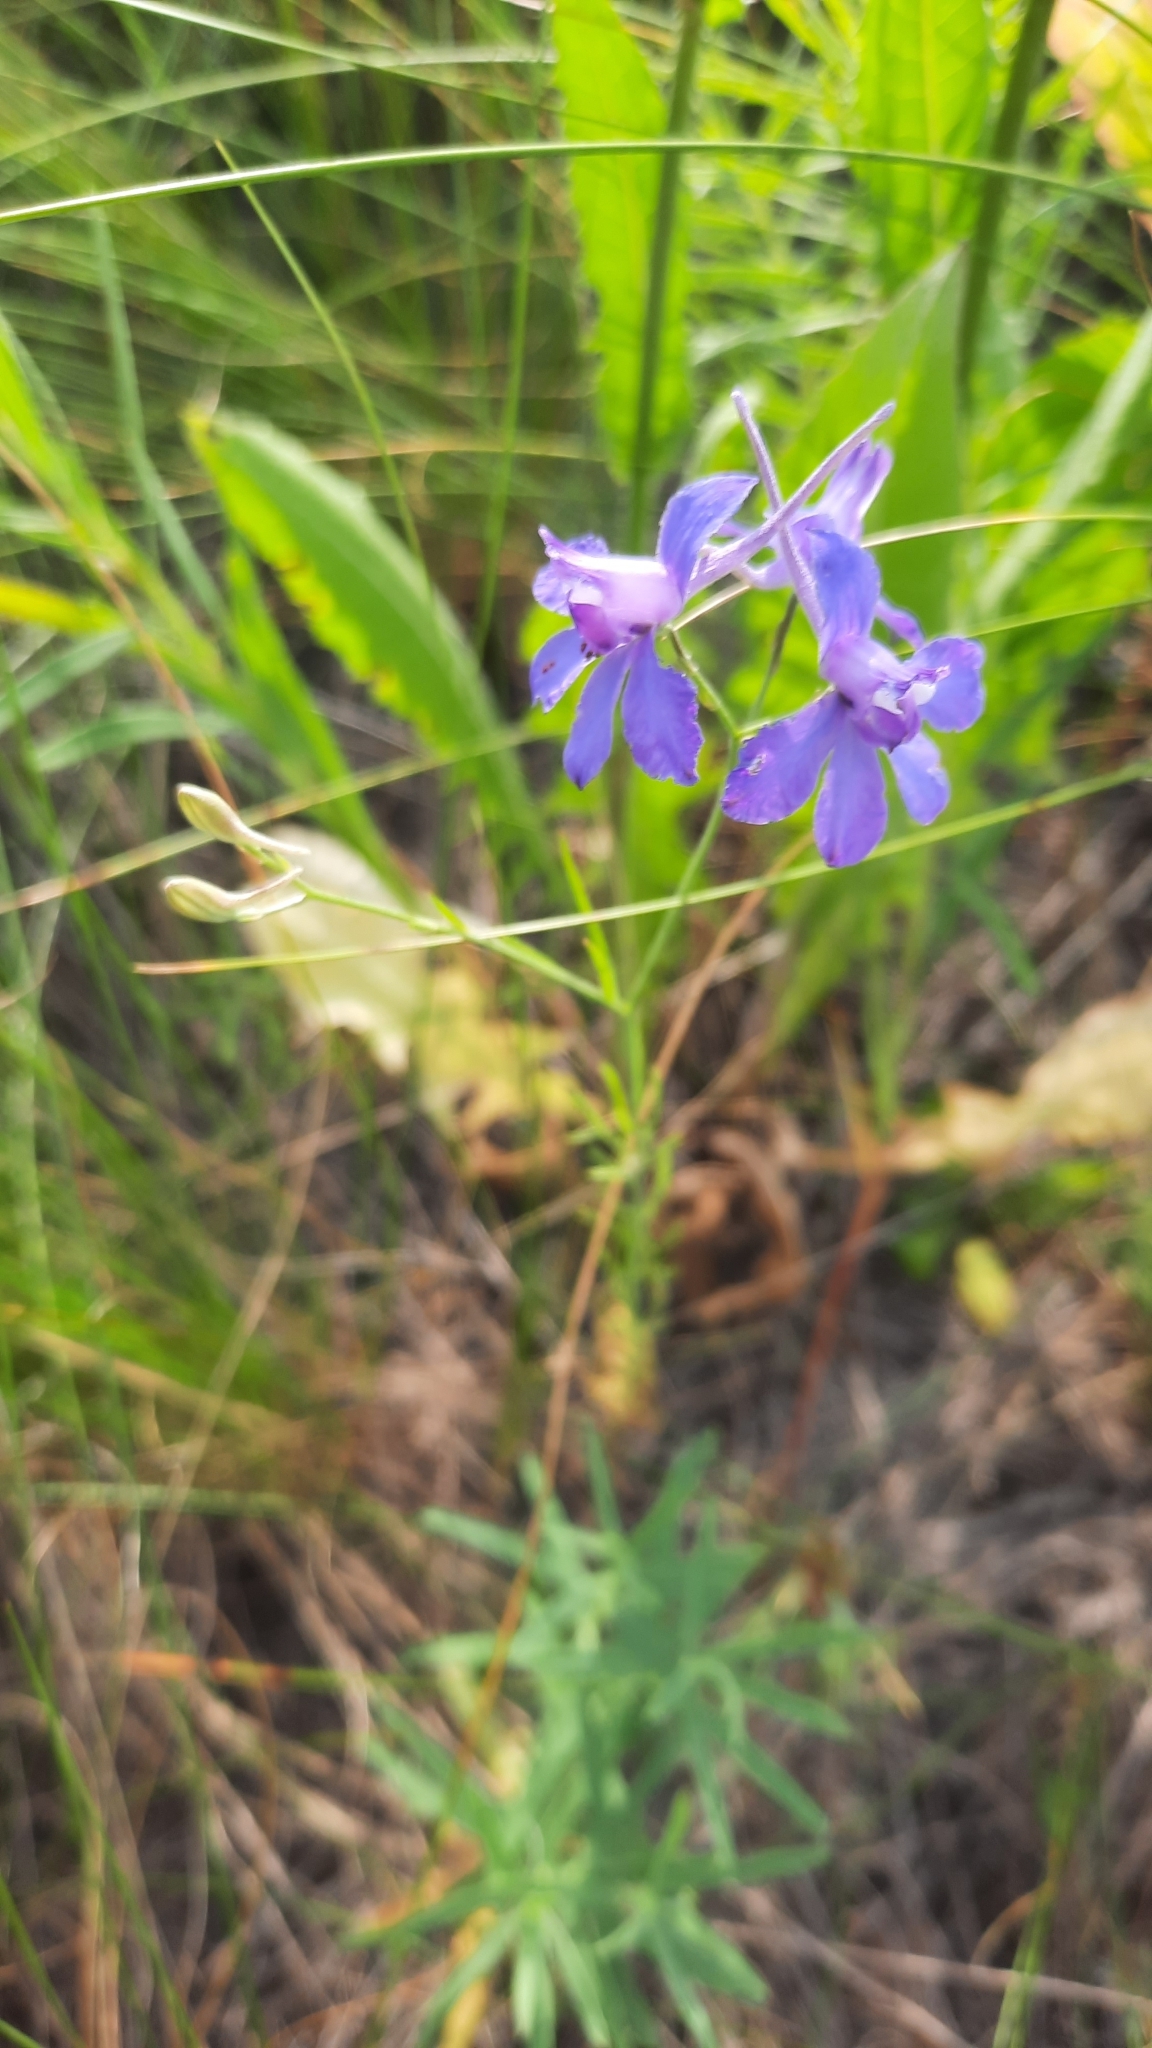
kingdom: Plantae
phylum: Tracheophyta
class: Magnoliopsida
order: Ranunculales
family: Ranunculaceae
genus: Delphinium
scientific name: Delphinium consolida
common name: Branching larkspur
